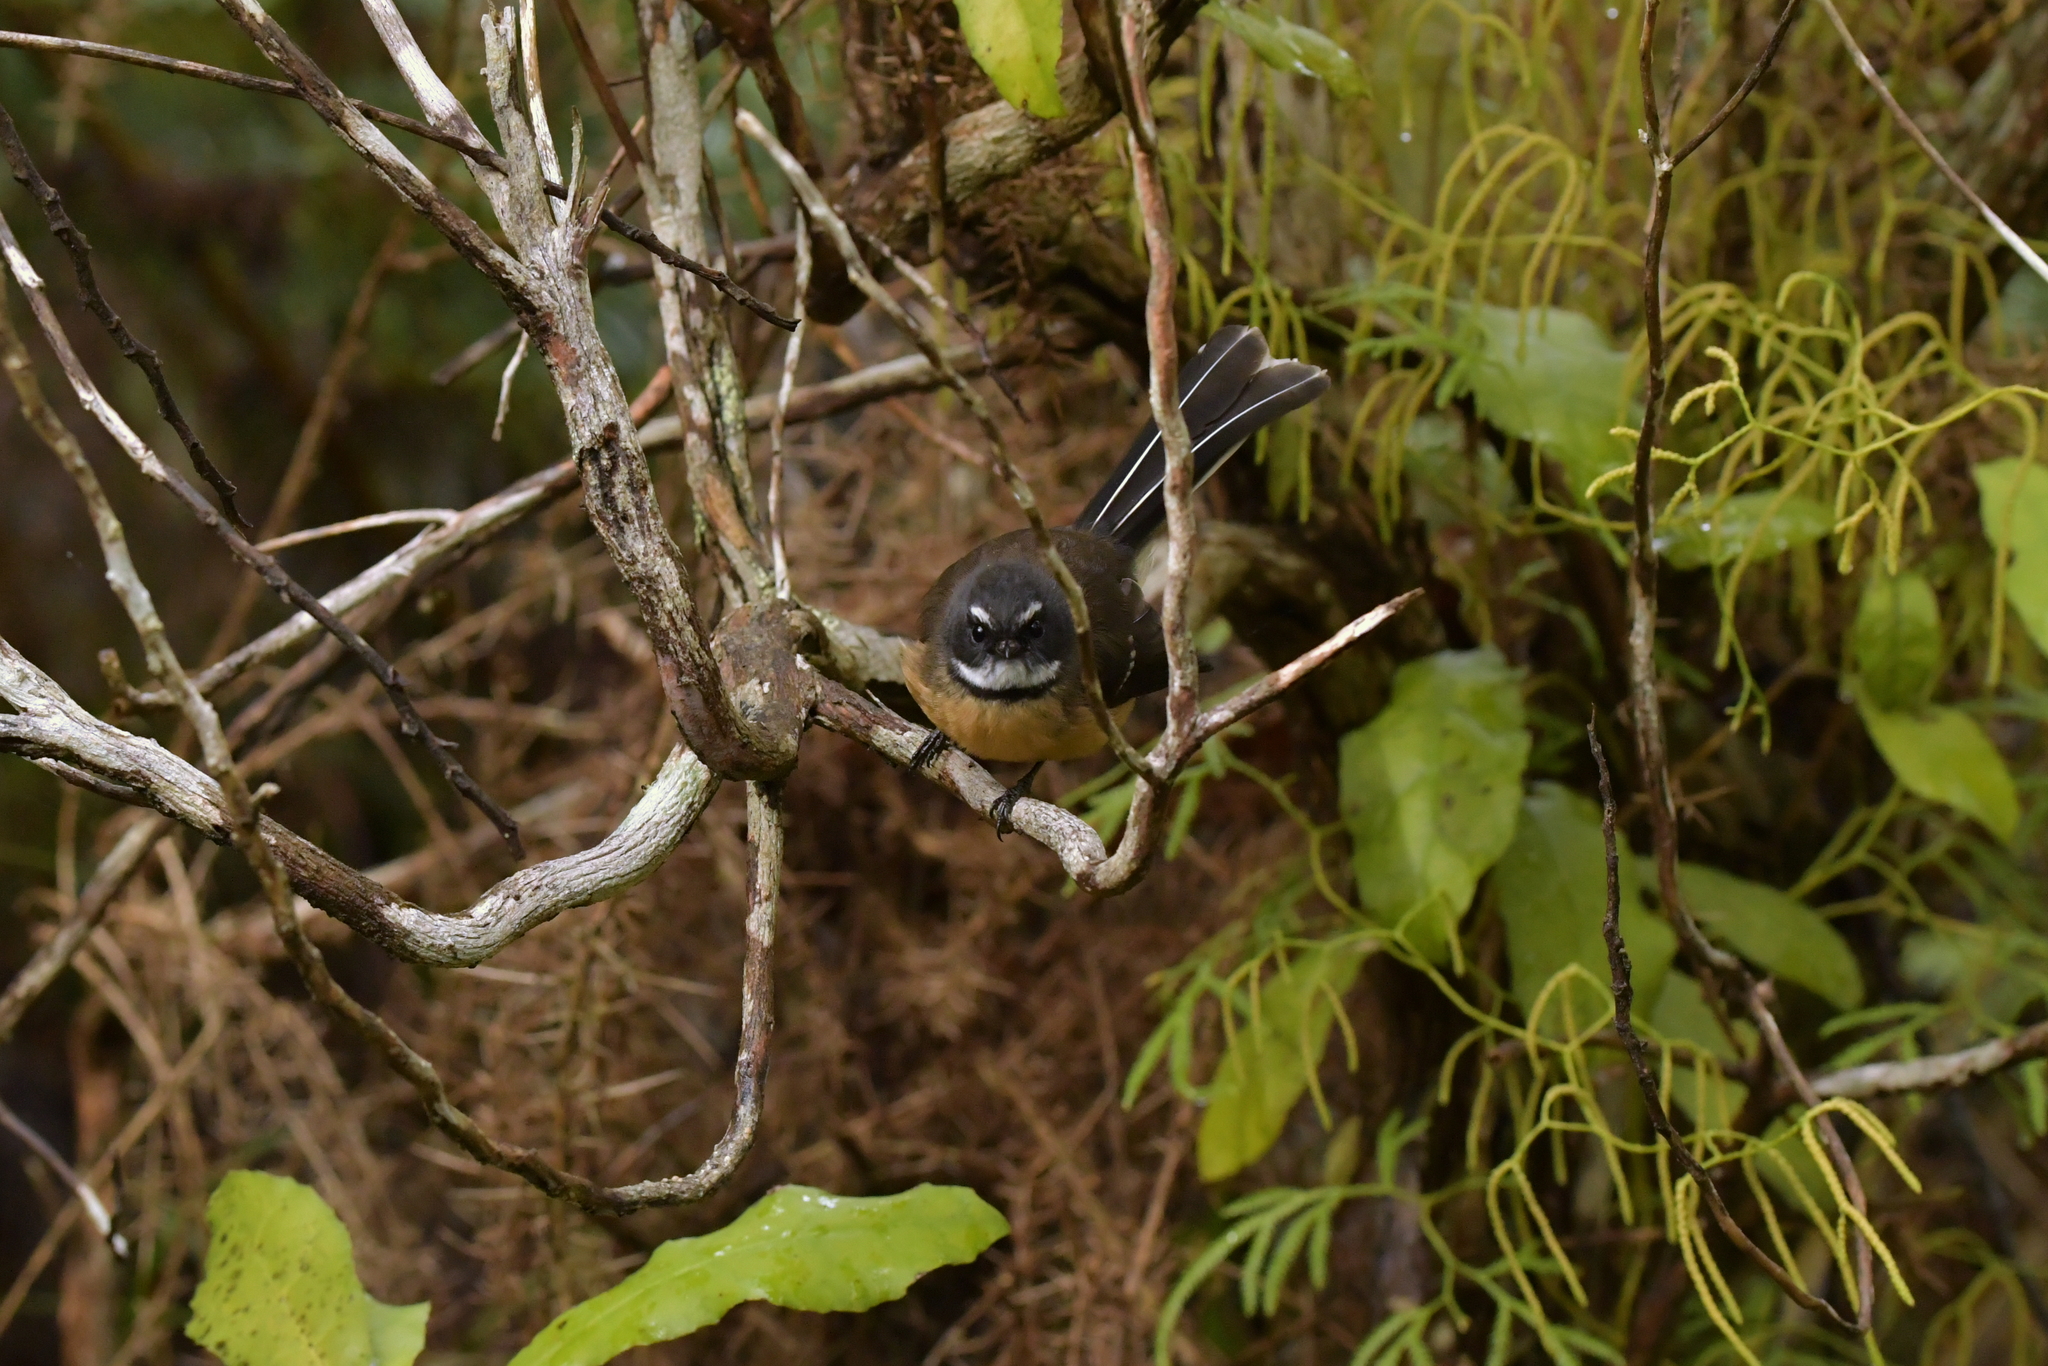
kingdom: Animalia
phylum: Chordata
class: Aves
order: Passeriformes
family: Rhipiduridae
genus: Rhipidura
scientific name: Rhipidura fuliginosa
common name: New zealand fantail
